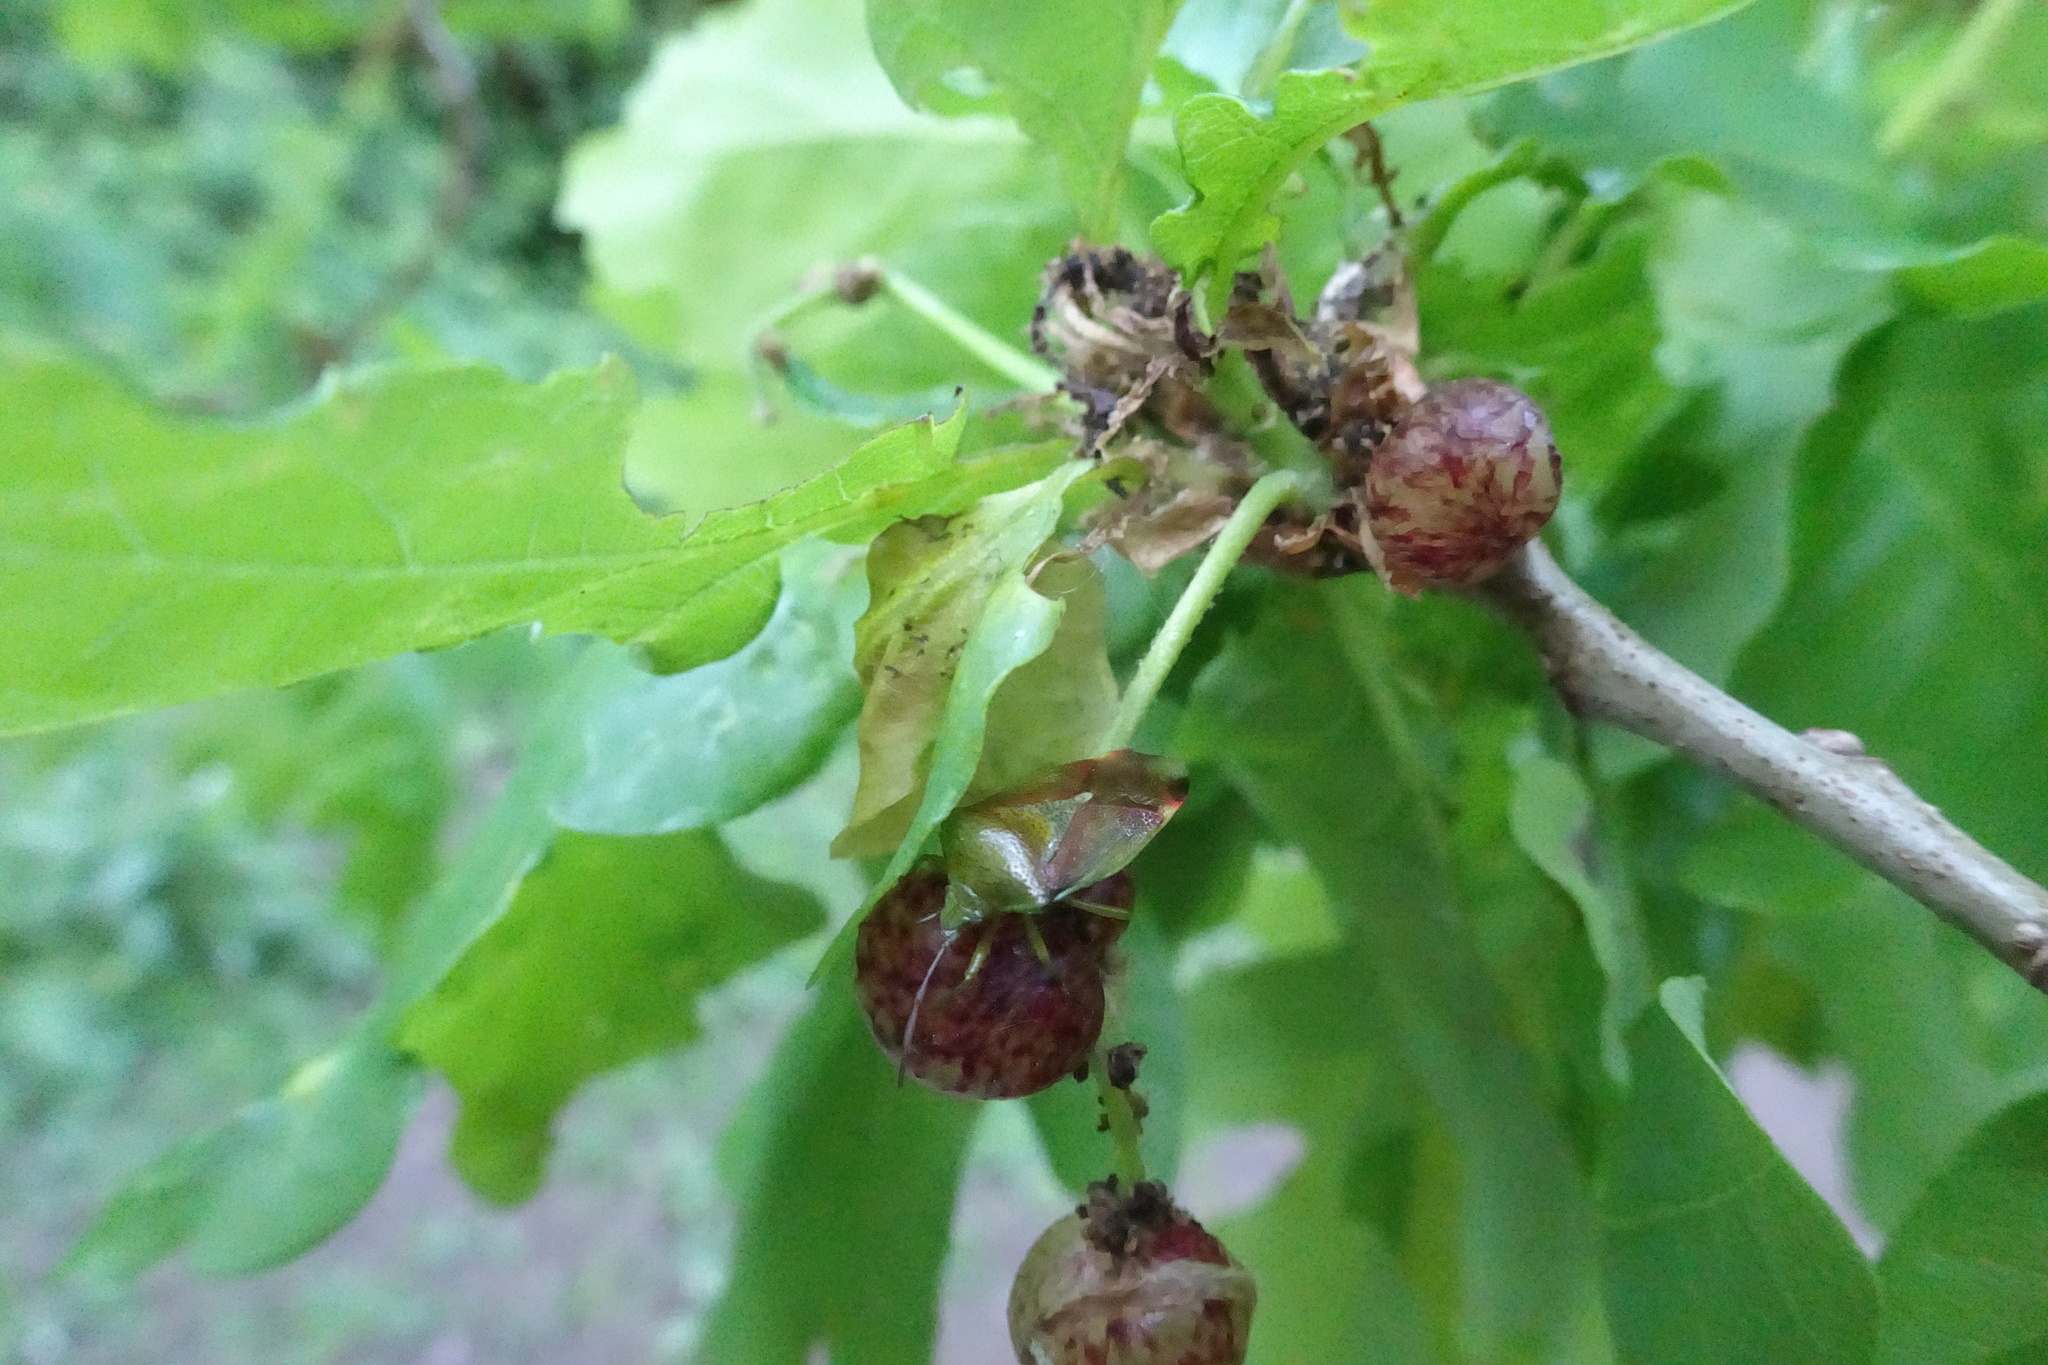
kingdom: Animalia
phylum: Arthropoda
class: Insecta
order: Hemiptera
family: Acanthosomatidae
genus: Elasmostethus
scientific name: Elasmostethus interstinctus
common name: Birch shieldbug
